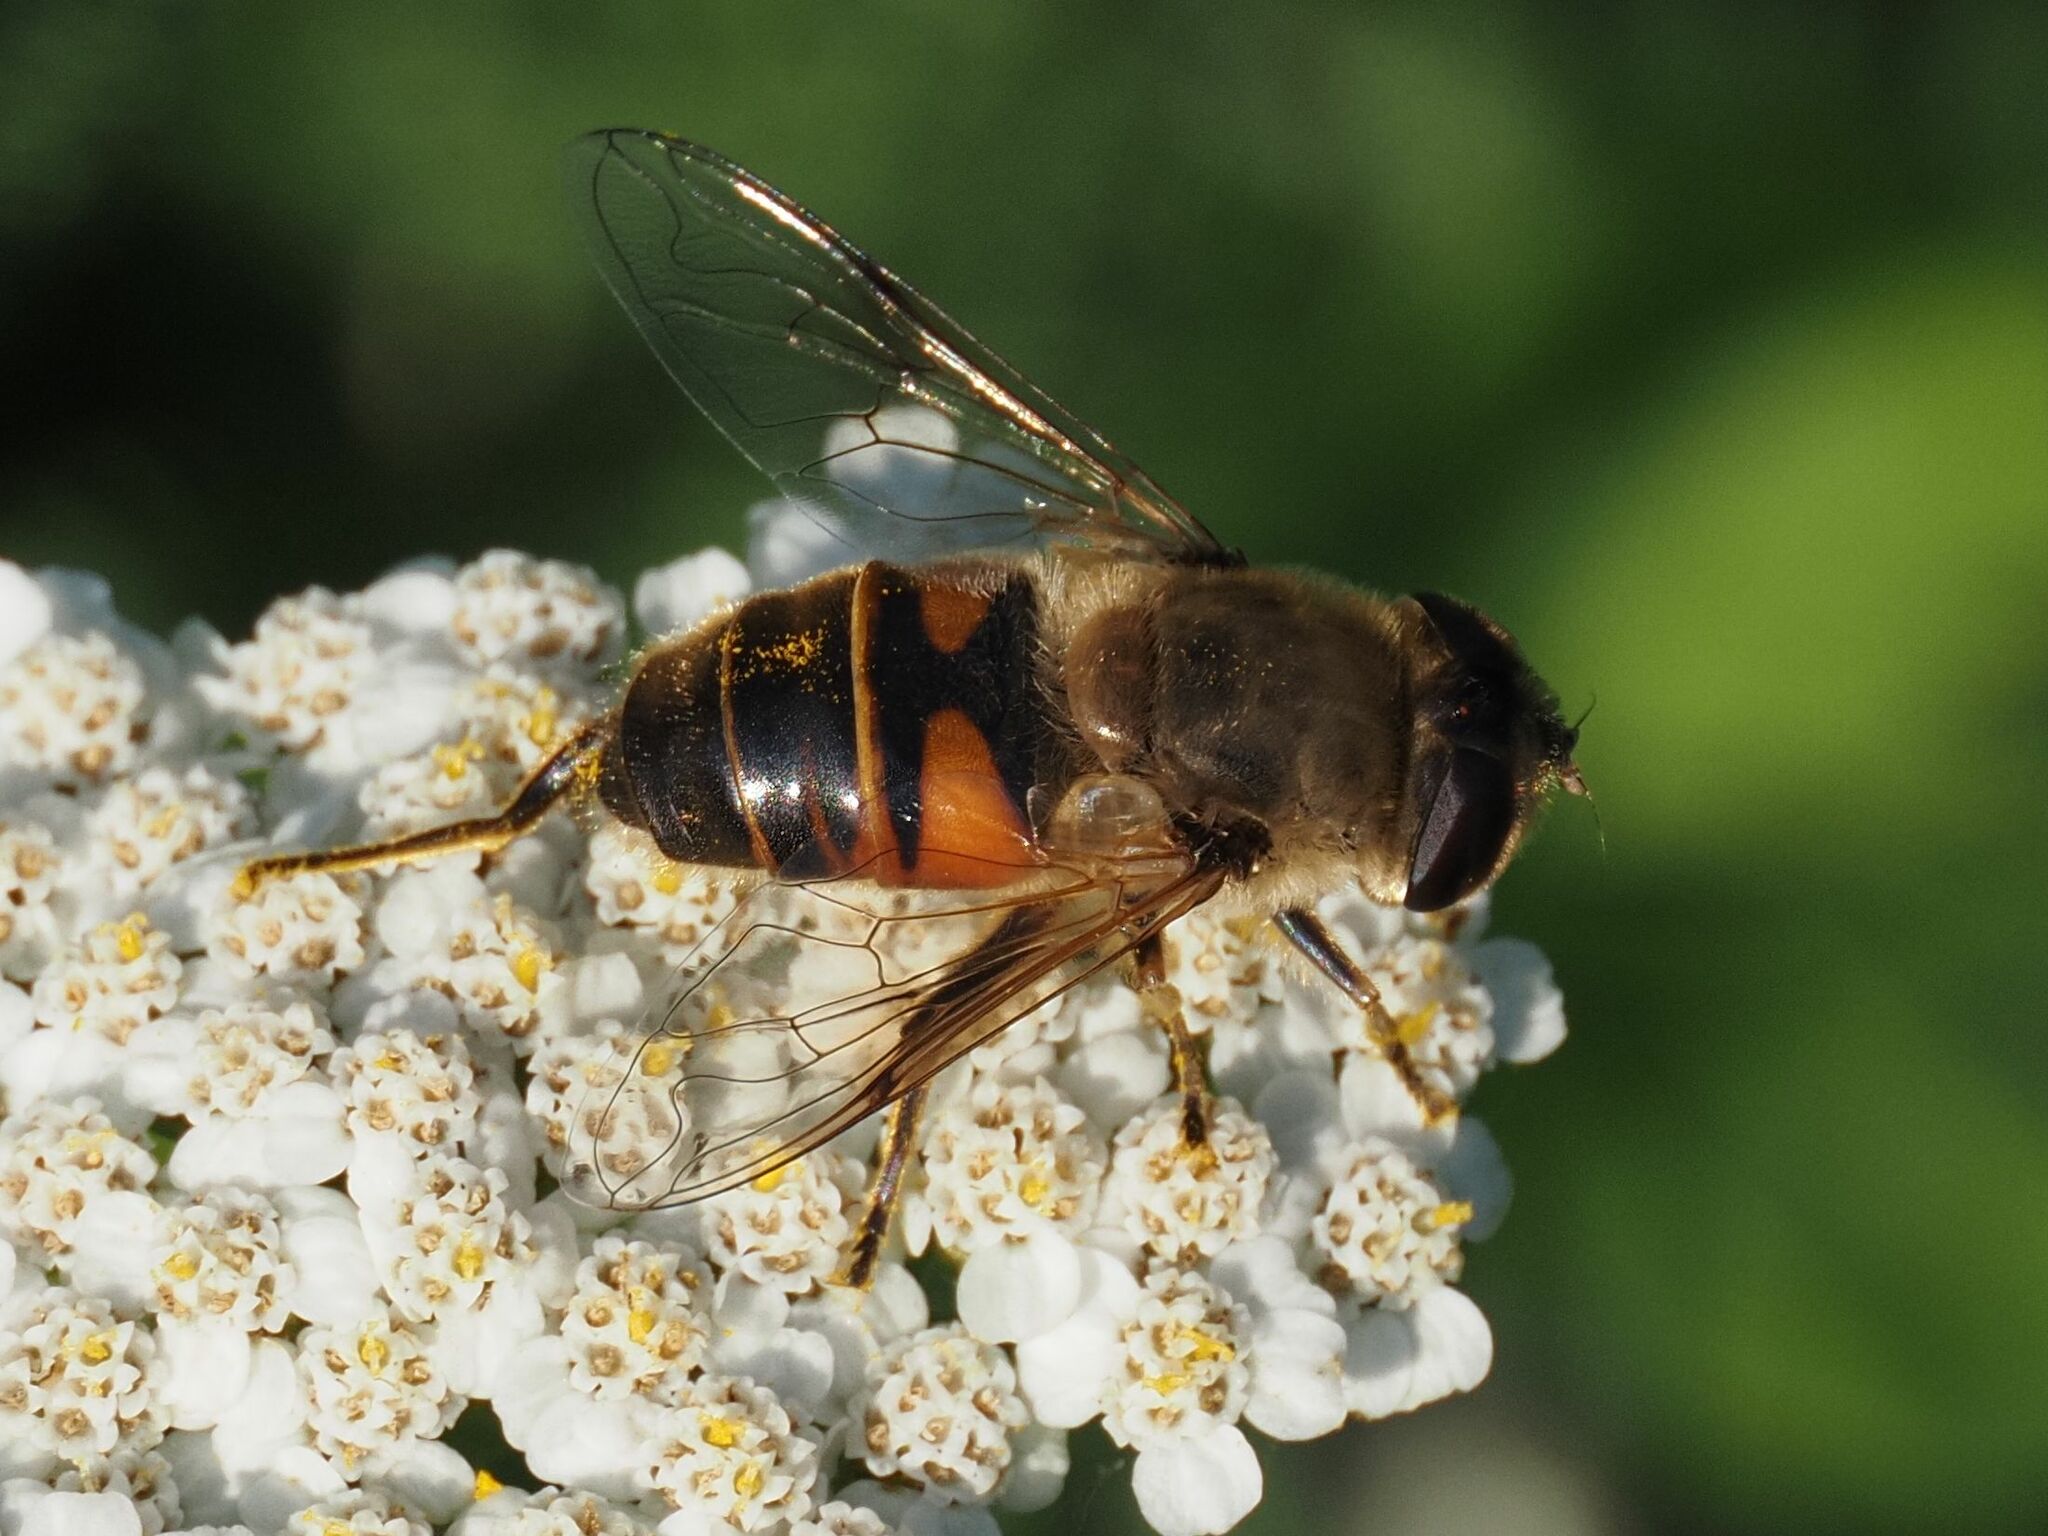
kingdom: Animalia
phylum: Arthropoda
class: Insecta
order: Diptera
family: Syrphidae
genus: Eristalis
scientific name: Eristalis tenax
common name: Drone fly
